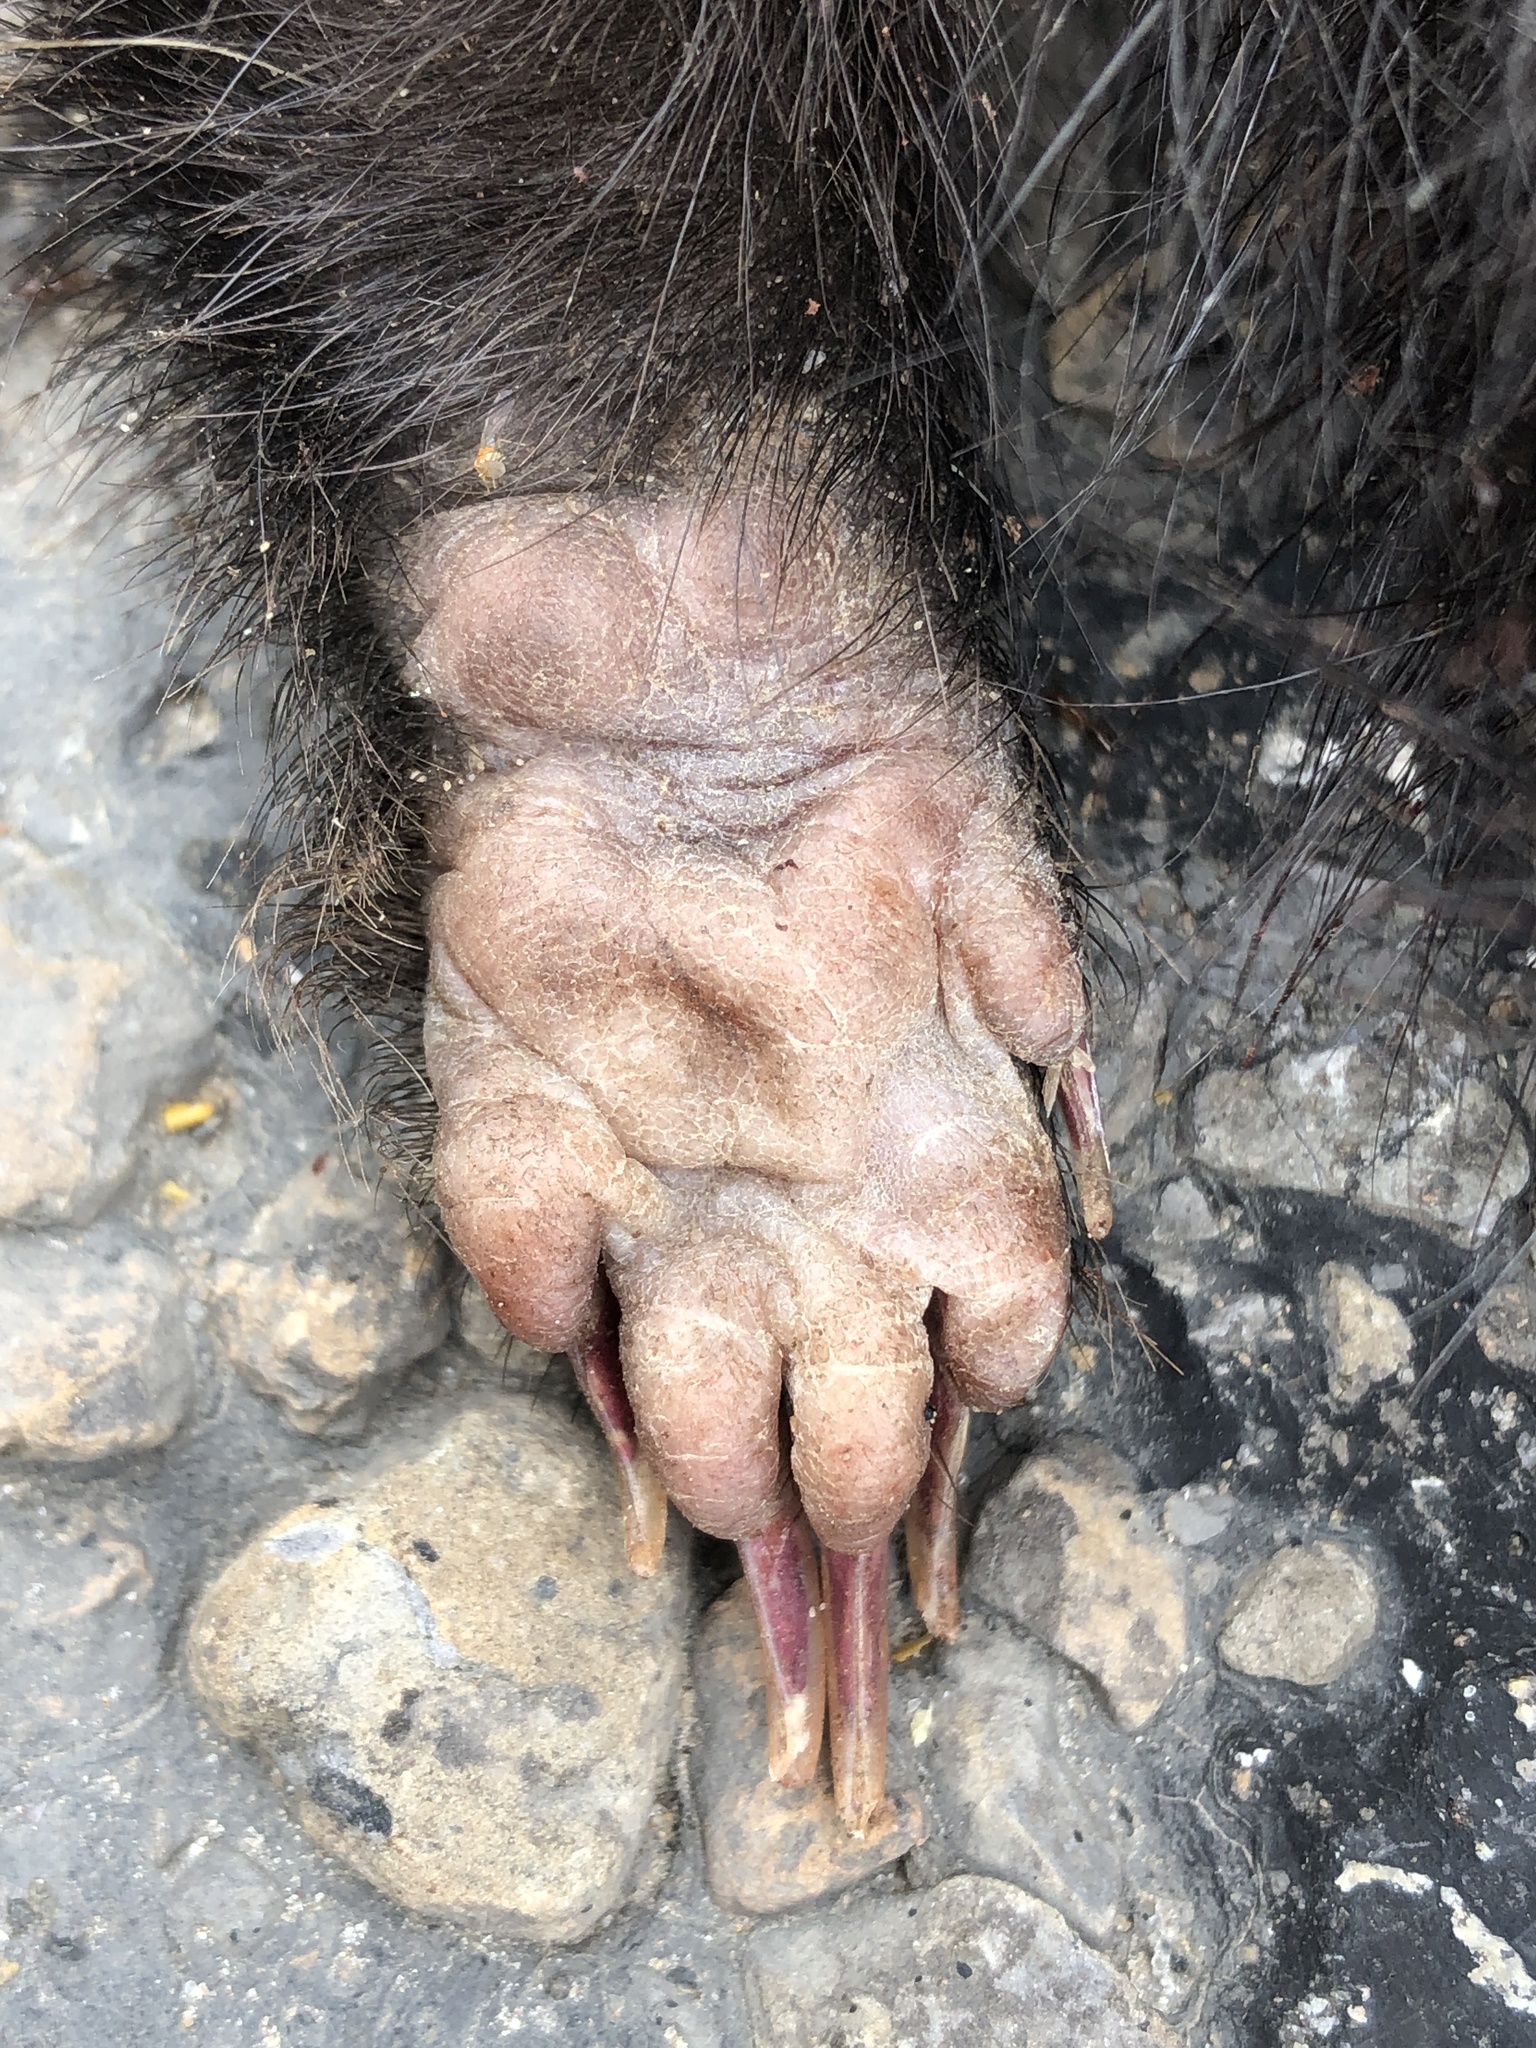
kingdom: Animalia
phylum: Chordata
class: Mammalia
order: Carnivora
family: Mephitidae
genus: Mephitis
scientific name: Mephitis mephitis
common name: Striped skunk
